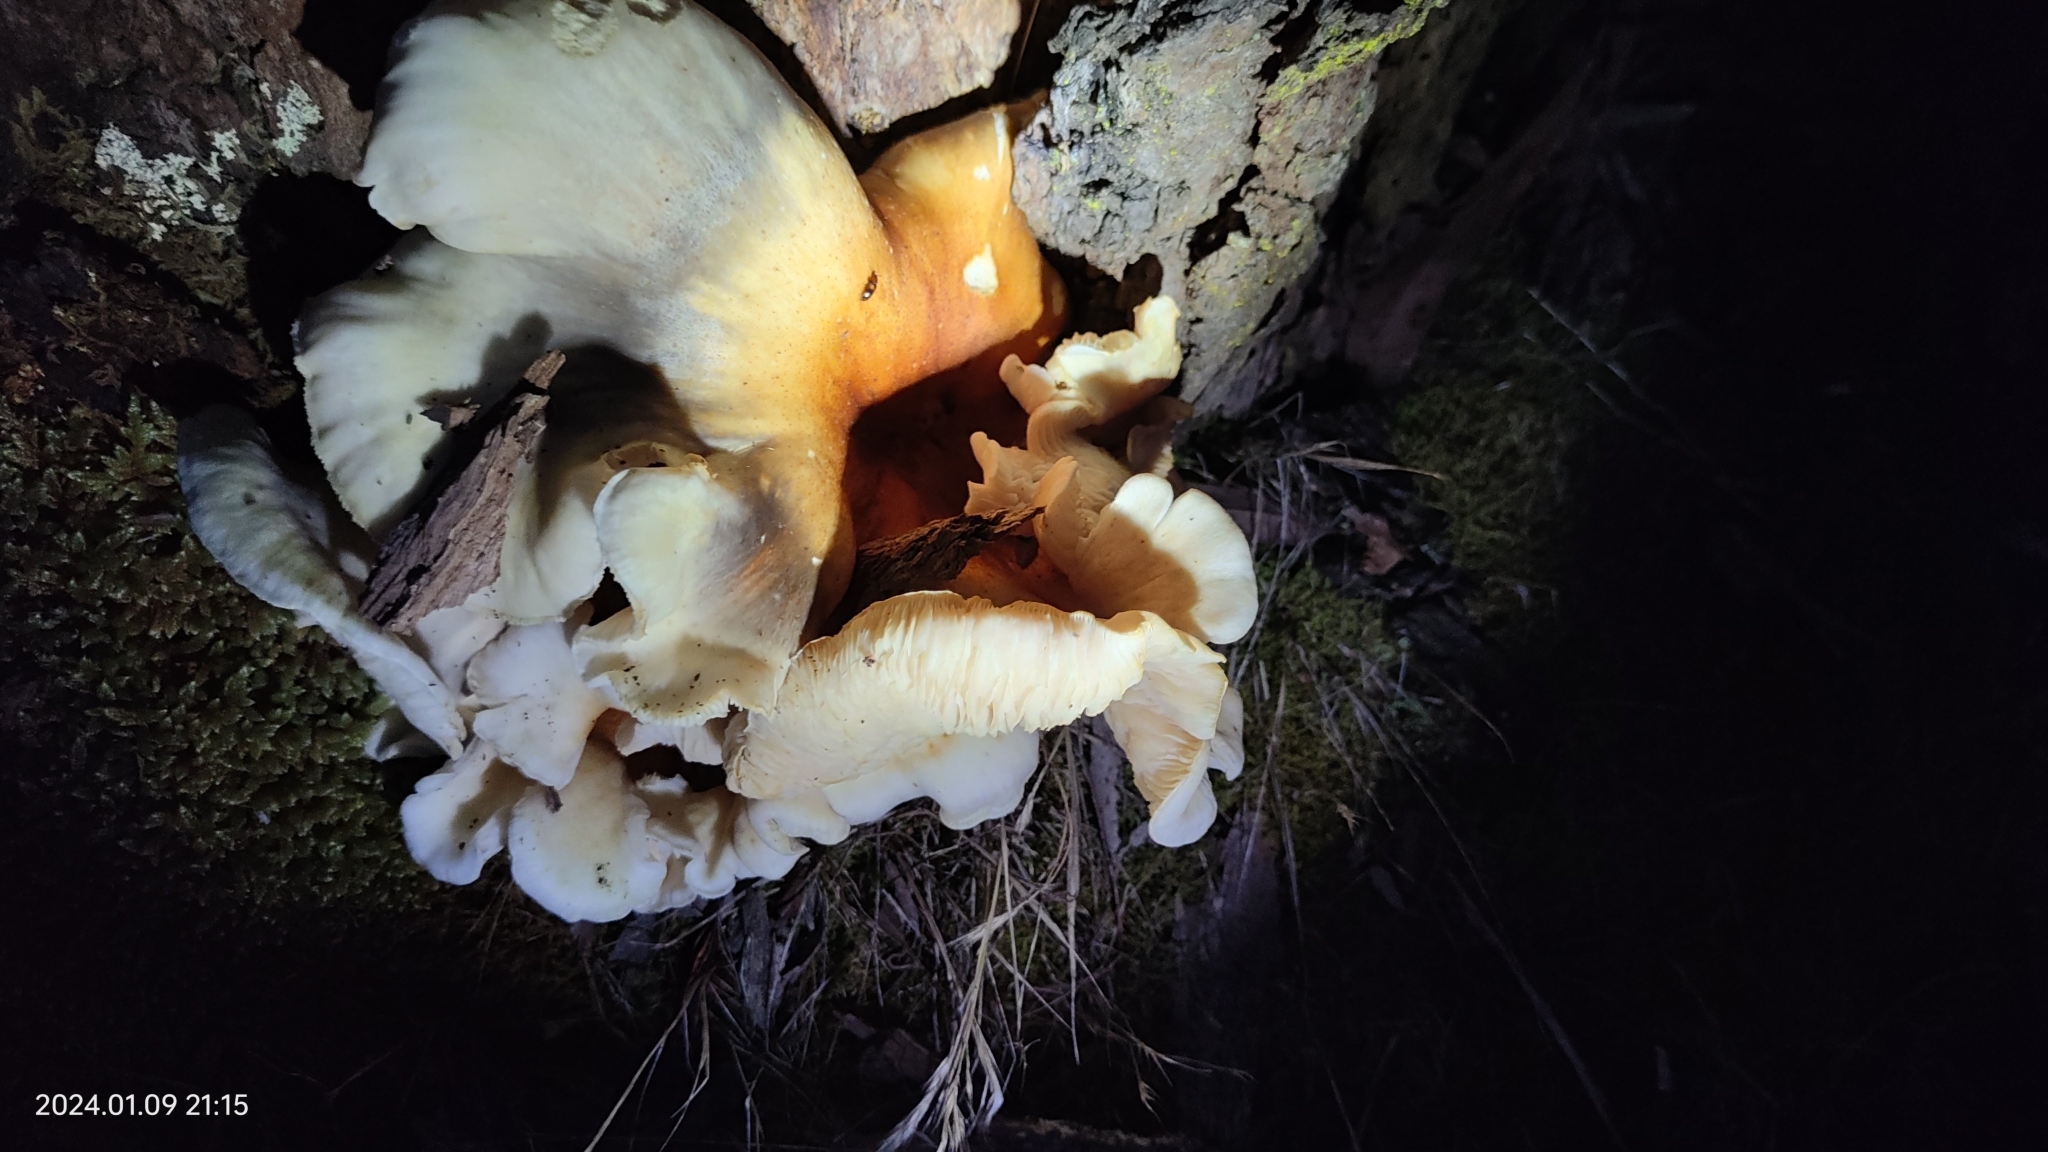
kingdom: Fungi
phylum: Basidiomycota
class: Agaricomycetes
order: Agaricales
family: Omphalotaceae
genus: Omphalotus
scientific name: Omphalotus nidiformis
